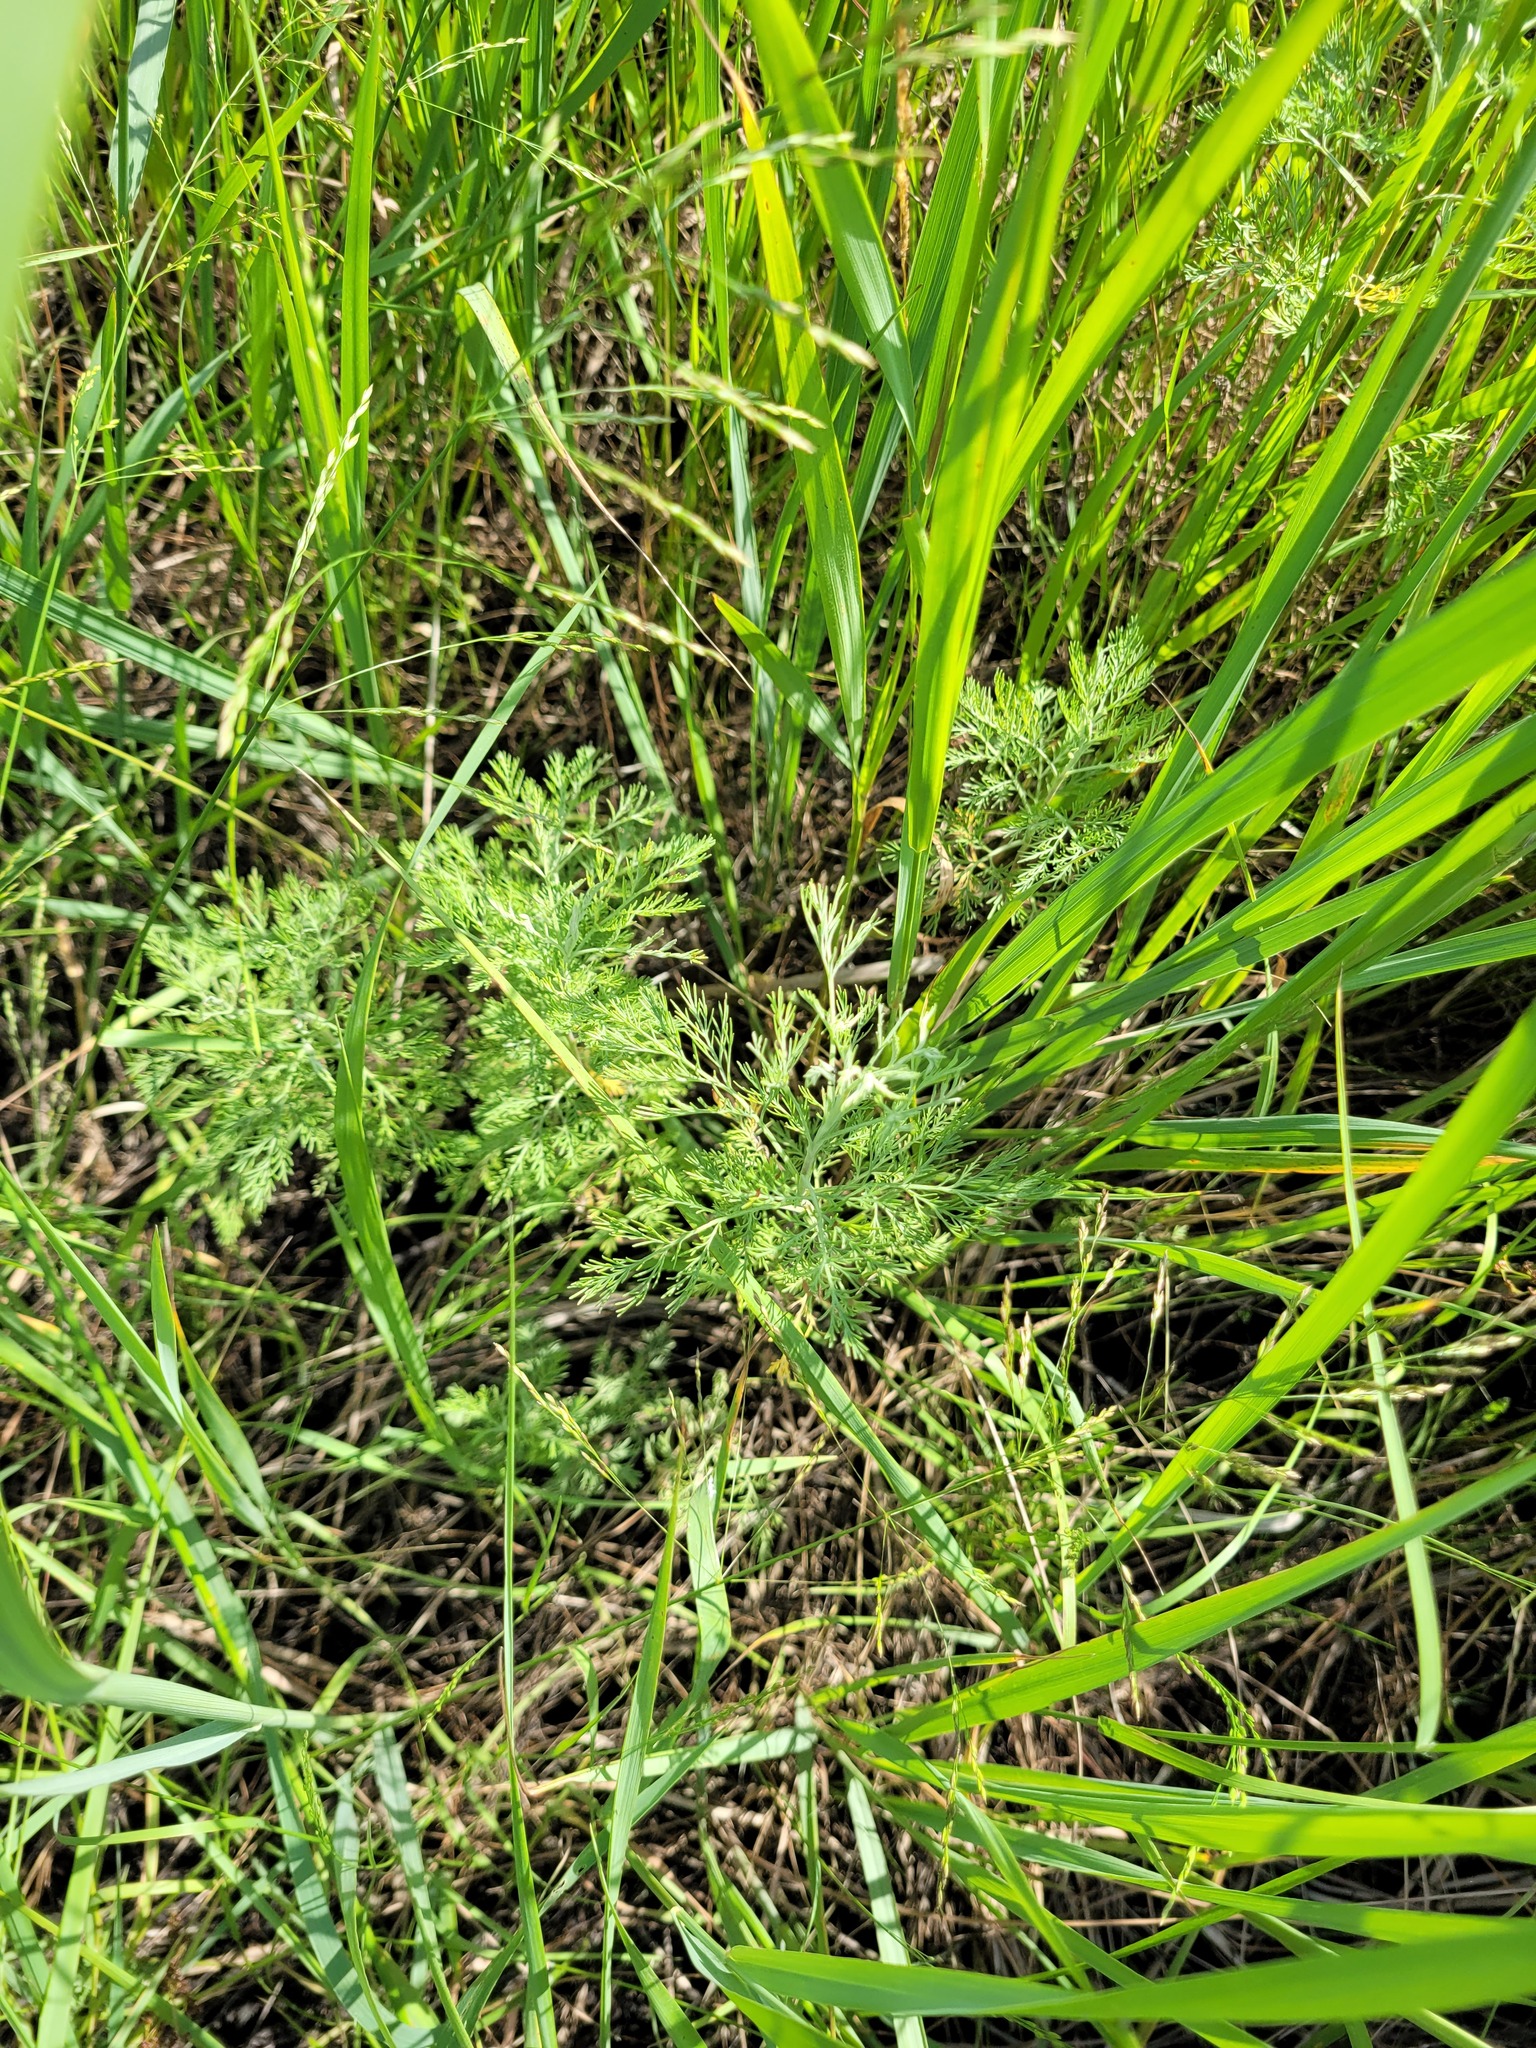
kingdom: Plantae
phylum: Tracheophyta
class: Magnoliopsida
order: Asterales
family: Asteraceae
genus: Artemisia
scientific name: Artemisia abrotanum
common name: Southernwood
